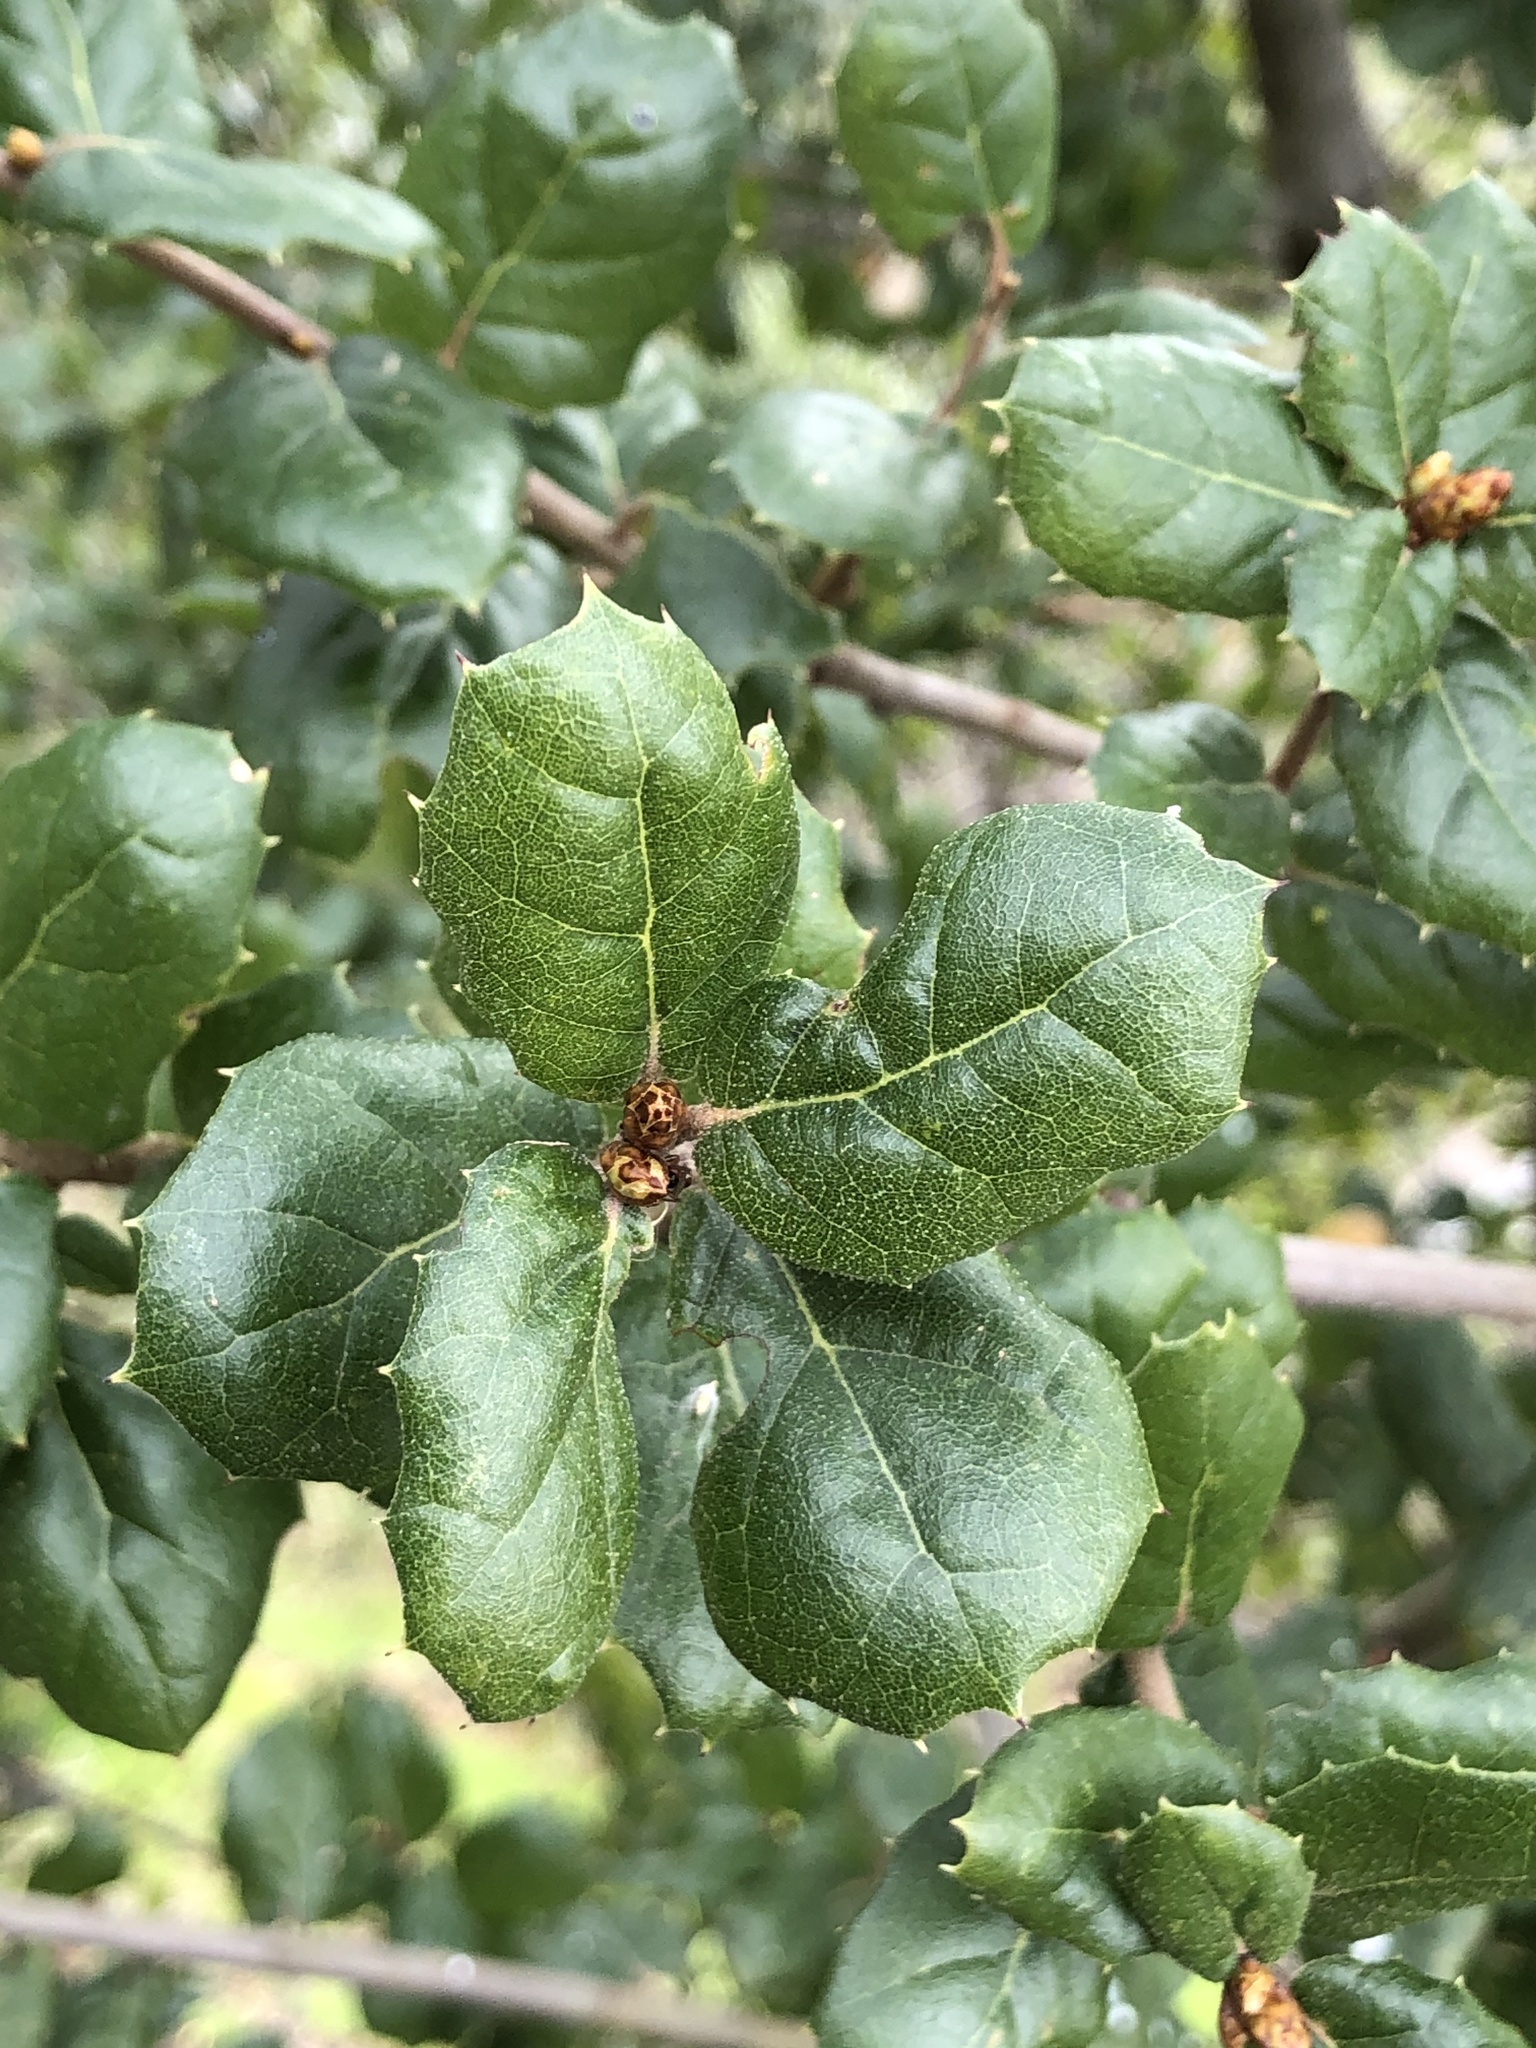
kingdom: Plantae
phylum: Tracheophyta
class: Magnoliopsida
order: Fagales
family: Fagaceae
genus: Quercus
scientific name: Quercus agrifolia
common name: California live oak
